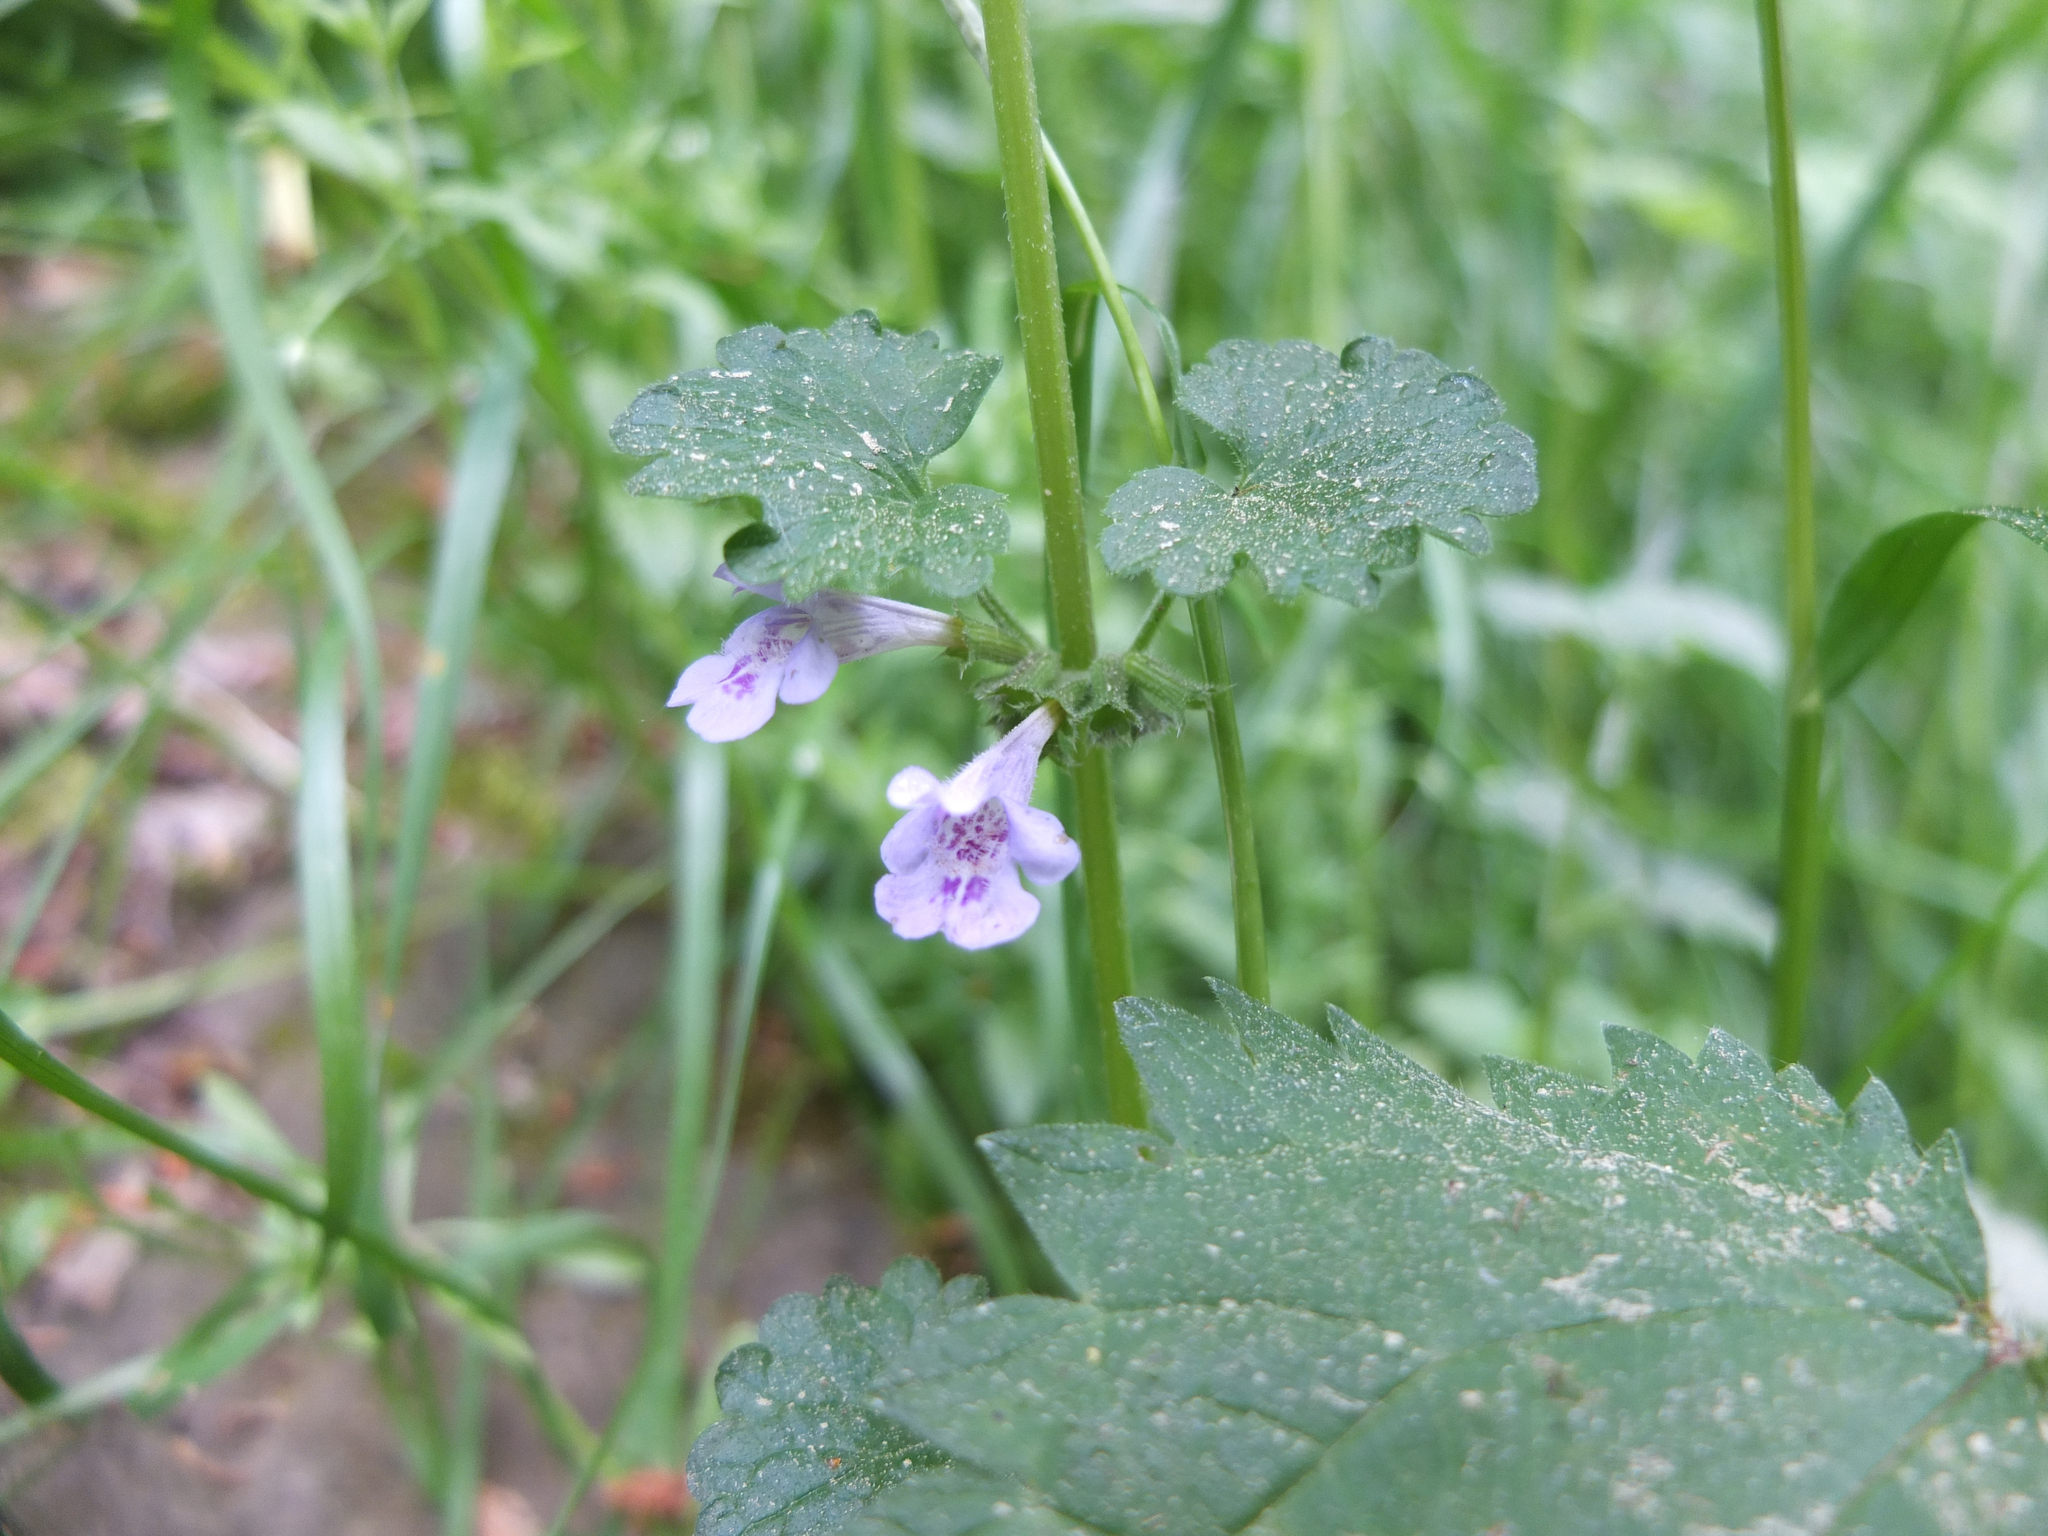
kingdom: Plantae
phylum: Tracheophyta
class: Magnoliopsida
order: Lamiales
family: Lamiaceae
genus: Glechoma
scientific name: Glechoma hederacea
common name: Ground ivy
